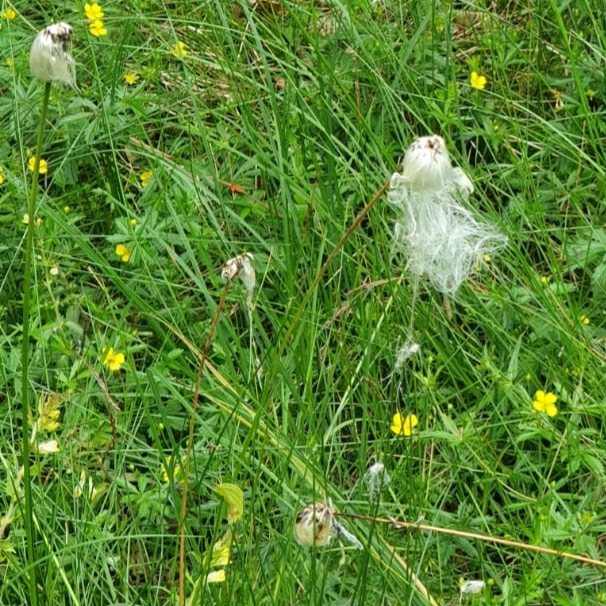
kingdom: Plantae
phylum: Tracheophyta
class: Liliopsida
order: Poales
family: Cyperaceae
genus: Eriophorum
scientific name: Eriophorum vaginatum
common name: Hare's-tail cottongrass
